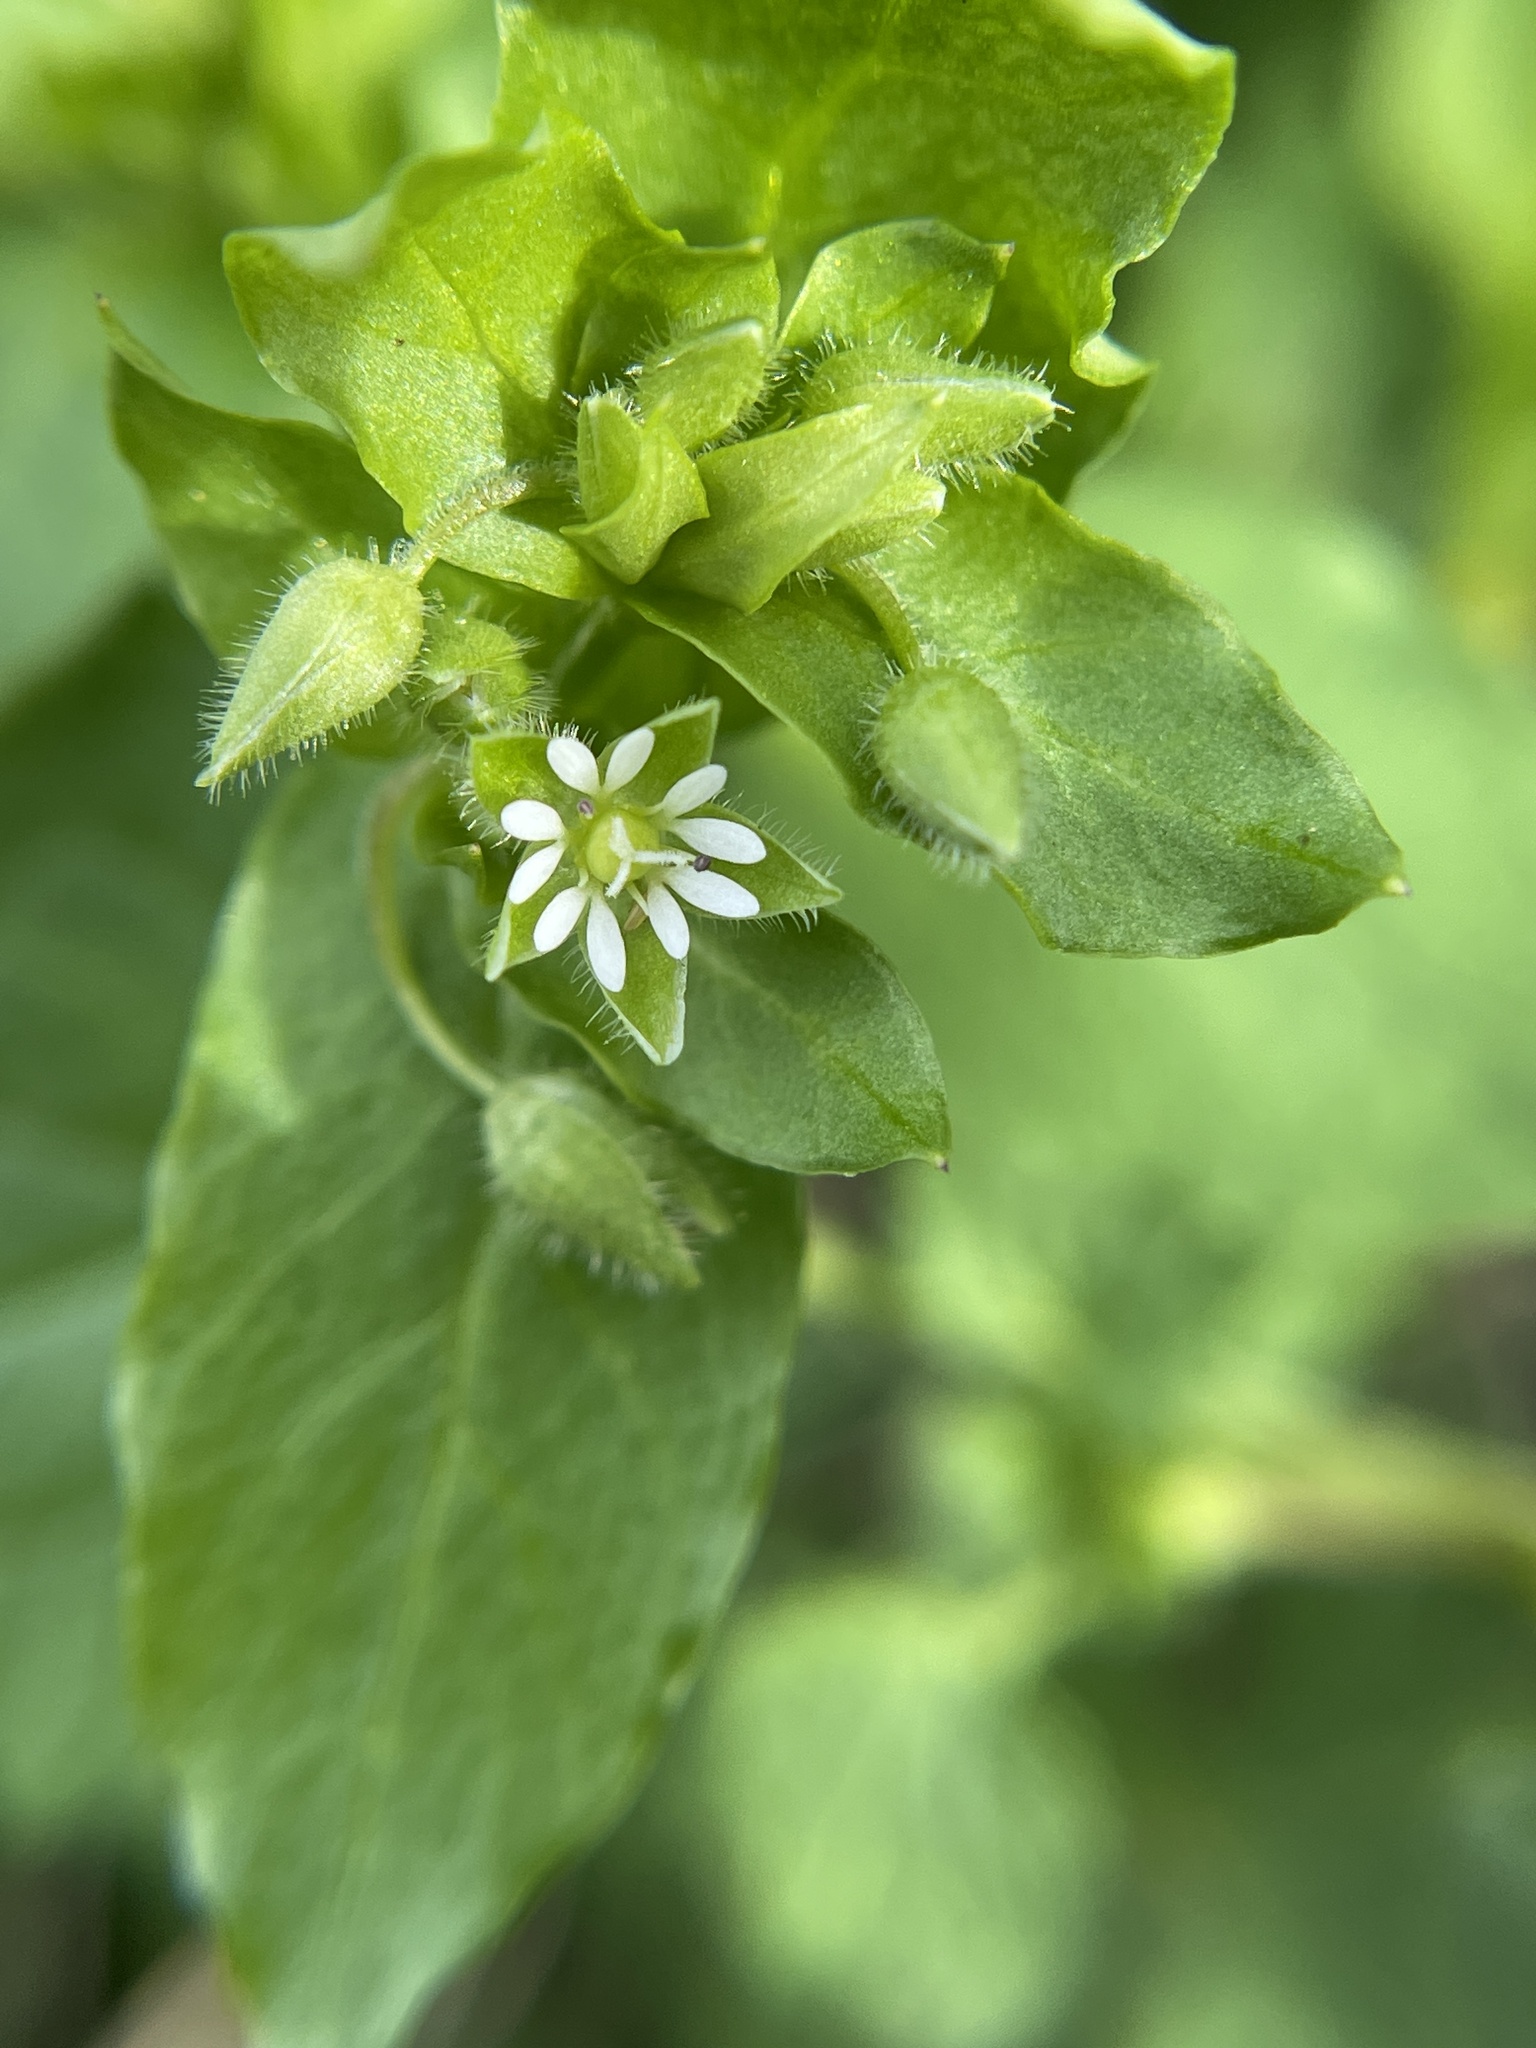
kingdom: Plantae
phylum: Tracheophyta
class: Magnoliopsida
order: Caryophyllales
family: Caryophyllaceae
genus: Stellaria
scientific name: Stellaria media
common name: Common chickweed
